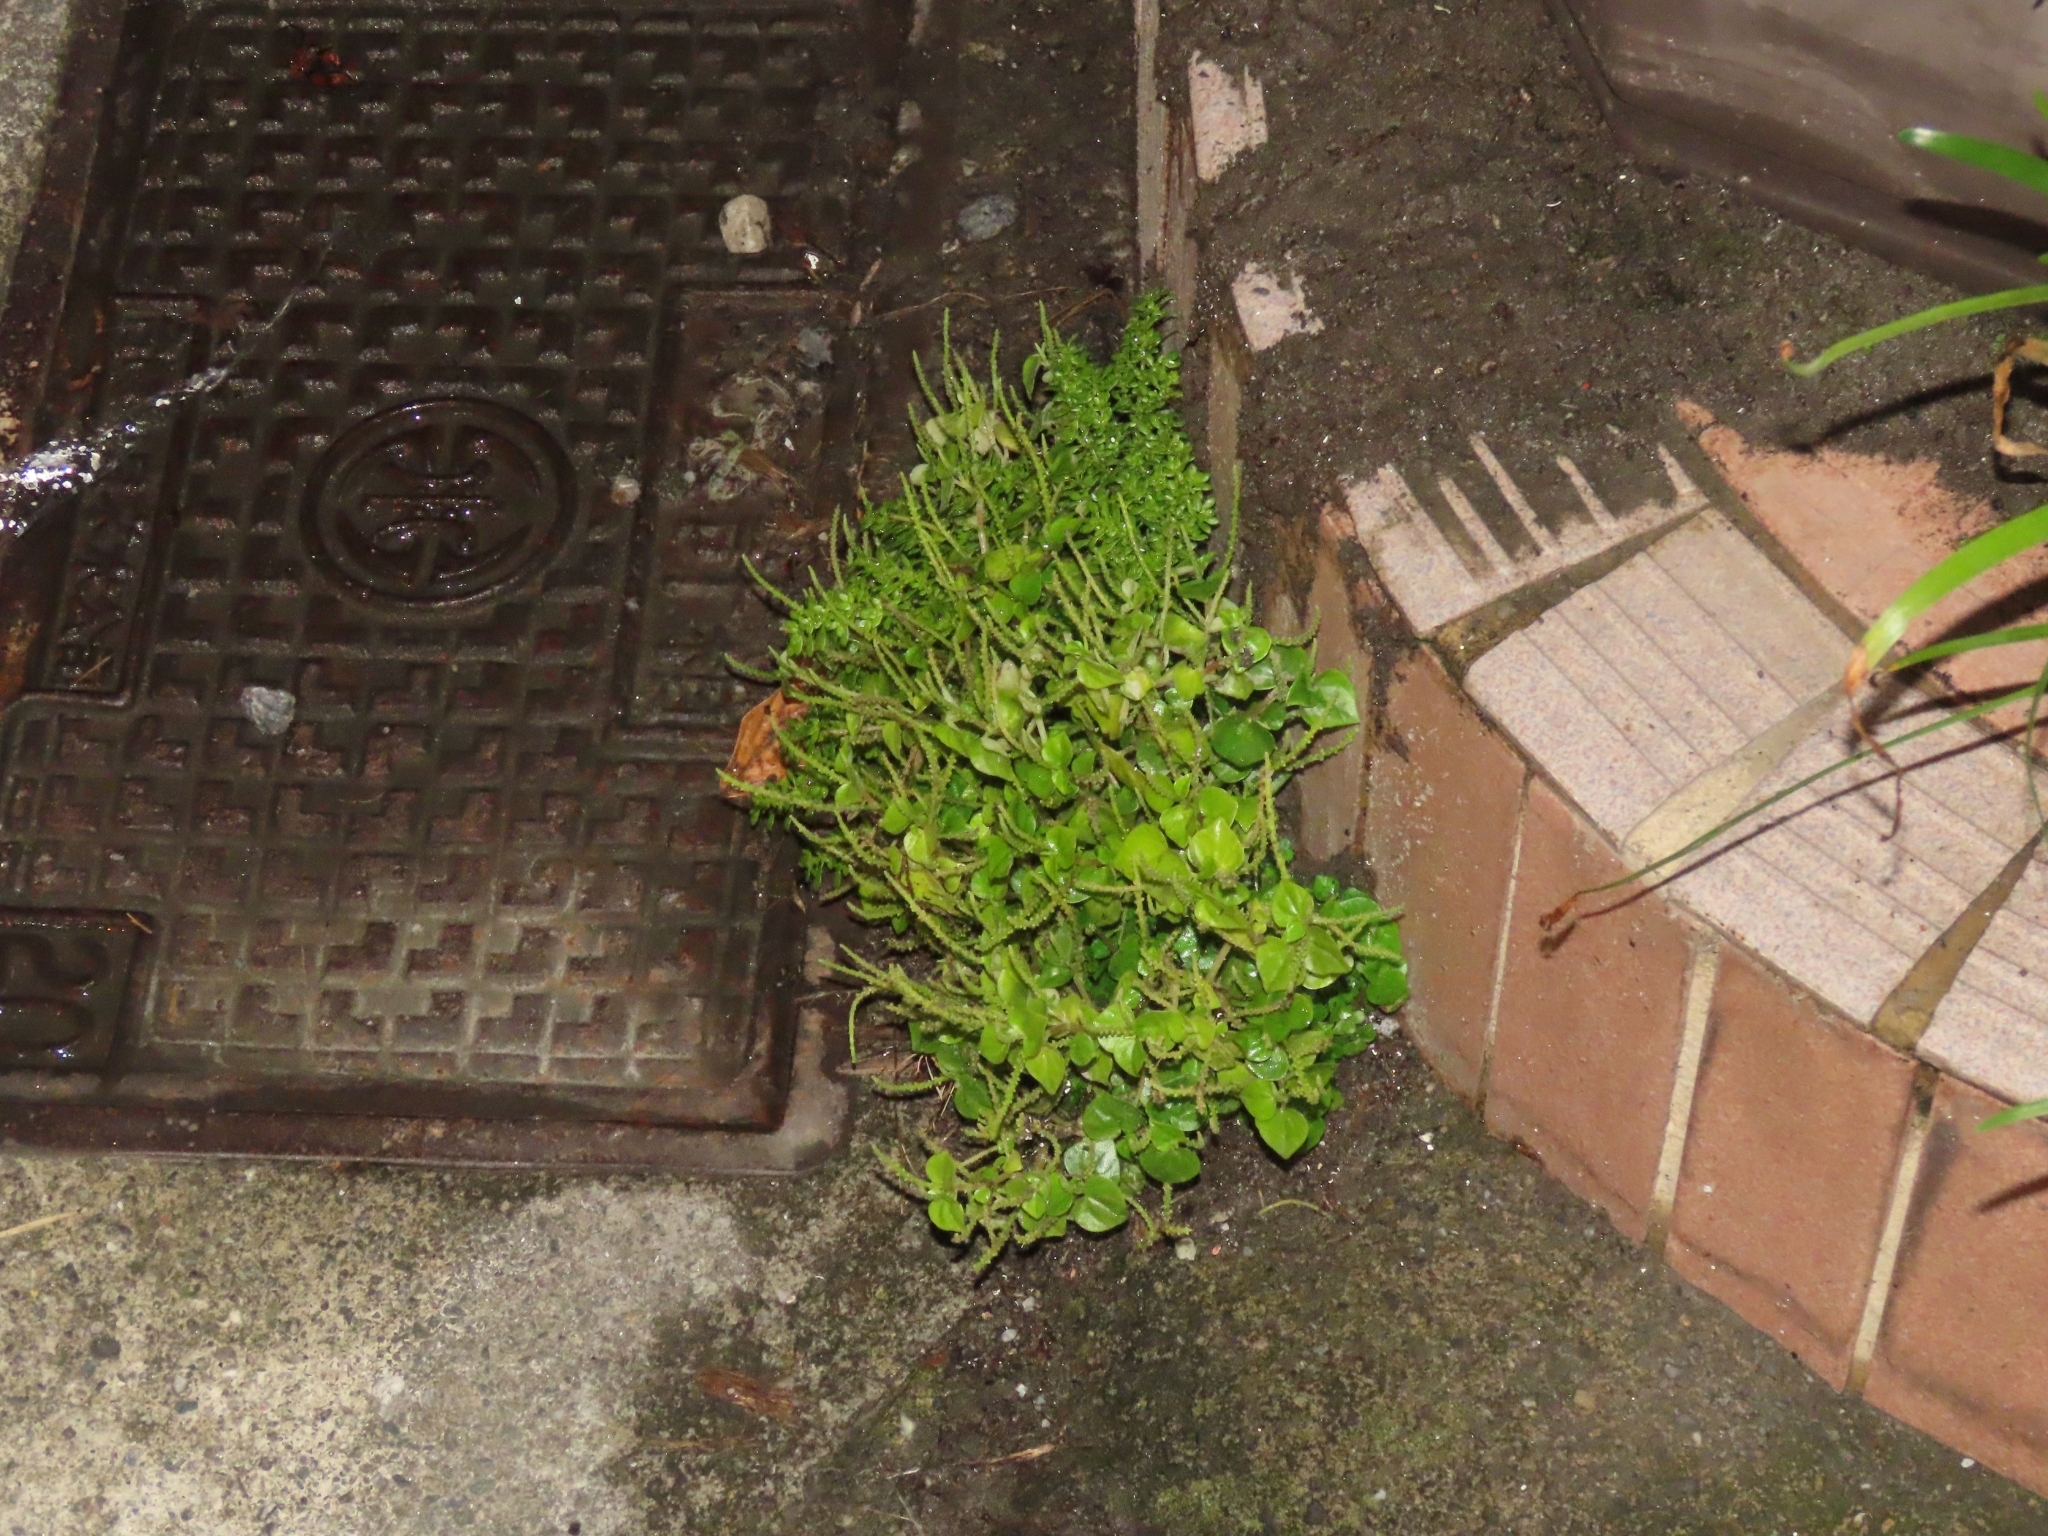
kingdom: Plantae
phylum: Tracheophyta
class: Magnoliopsida
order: Piperales
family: Piperaceae
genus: Peperomia
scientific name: Peperomia pellucida
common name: Man to man
